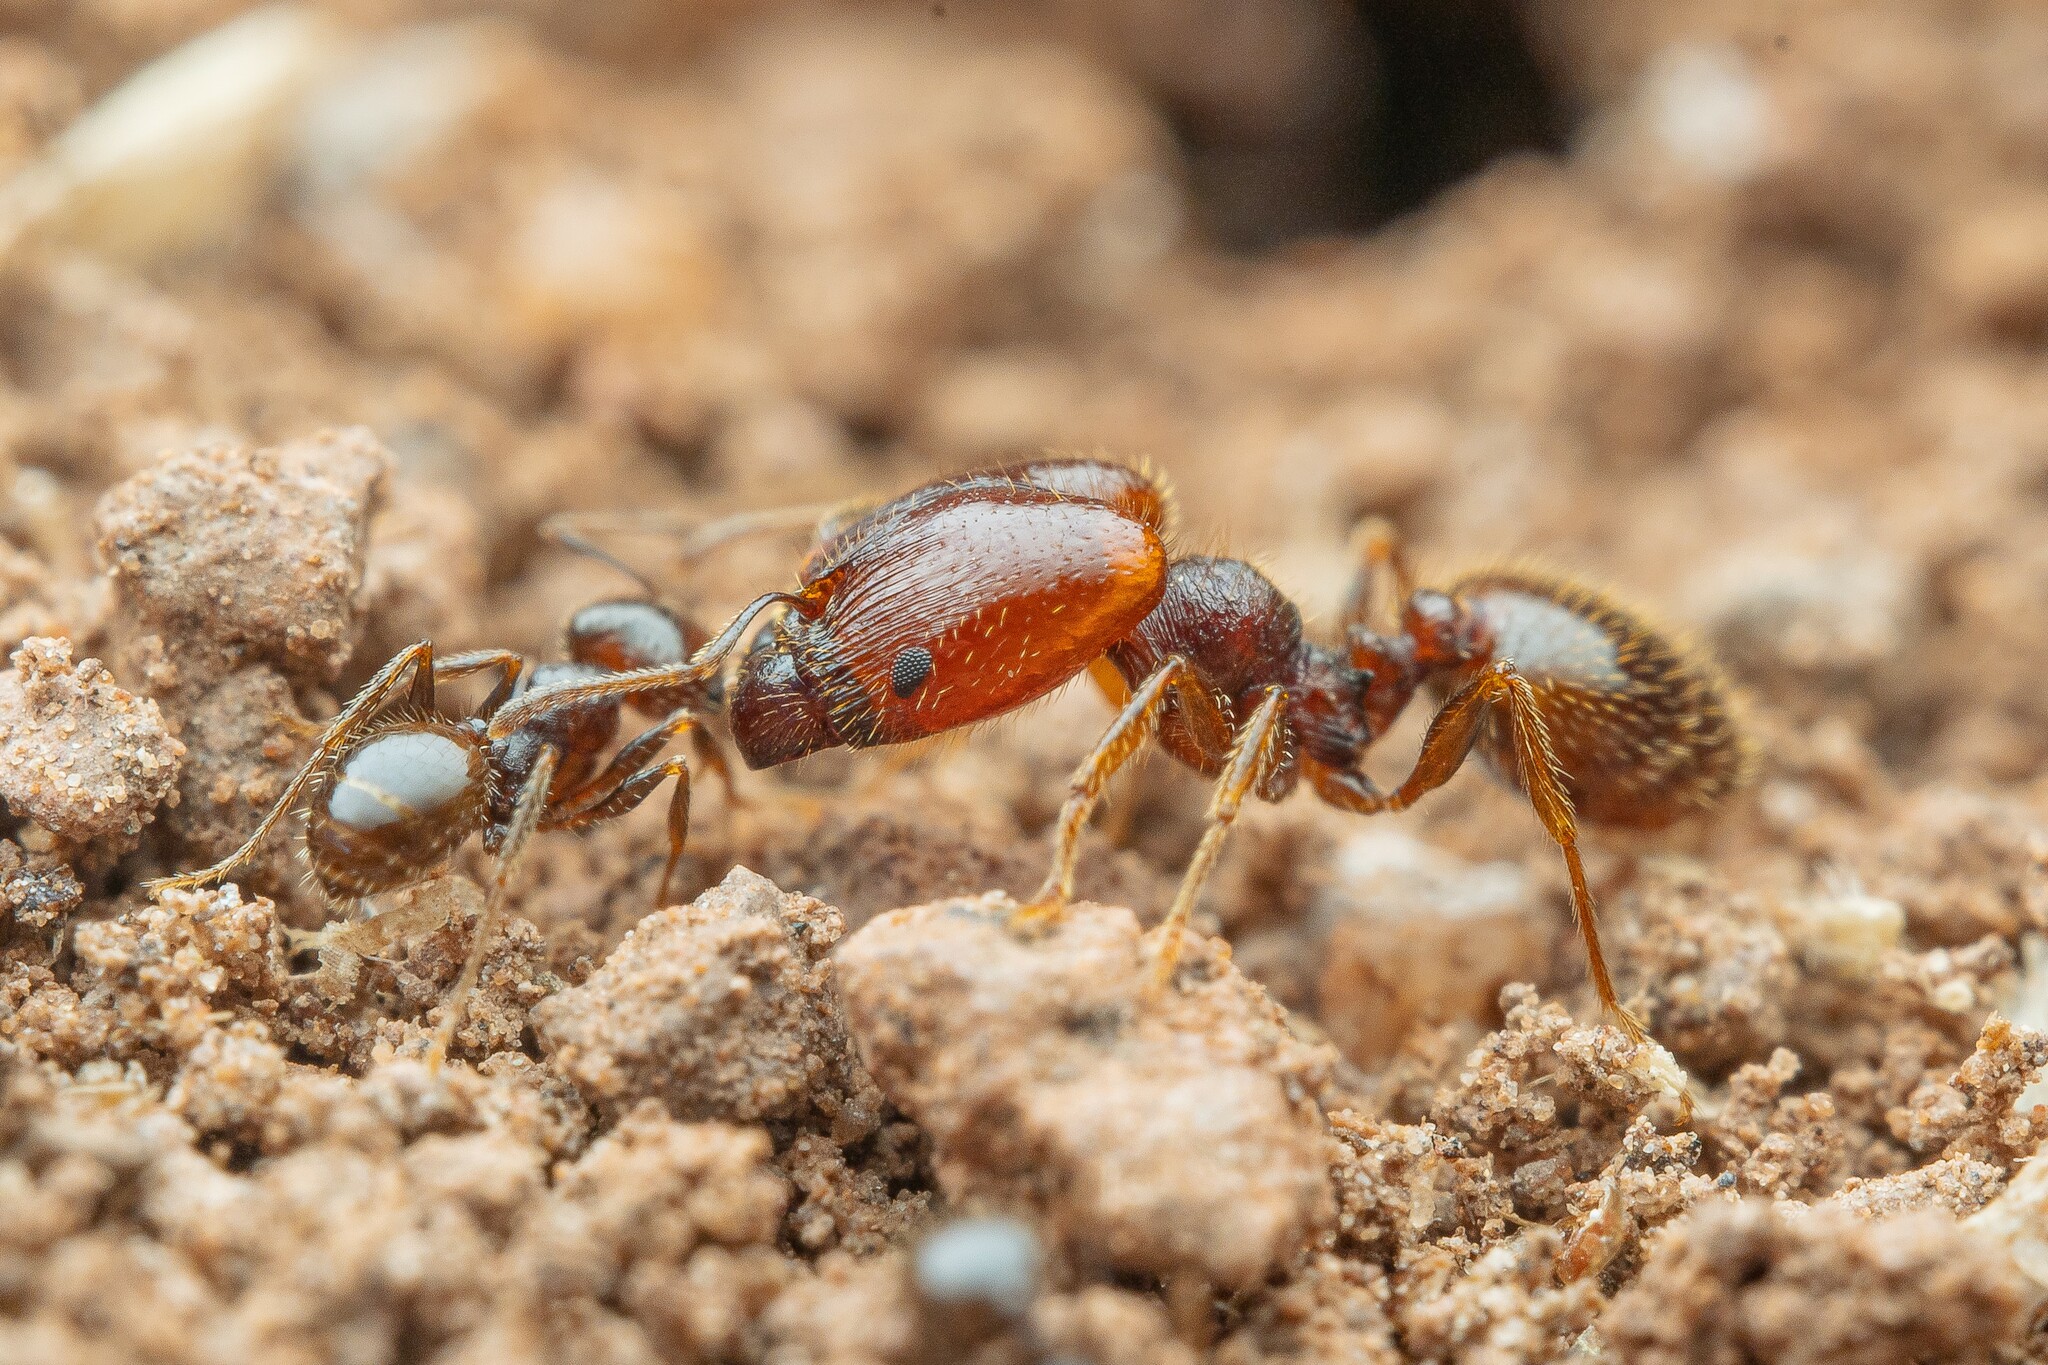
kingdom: Animalia
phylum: Arthropoda
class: Insecta
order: Hymenoptera
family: Formicidae
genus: Pheidole
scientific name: Pheidole xerophila
